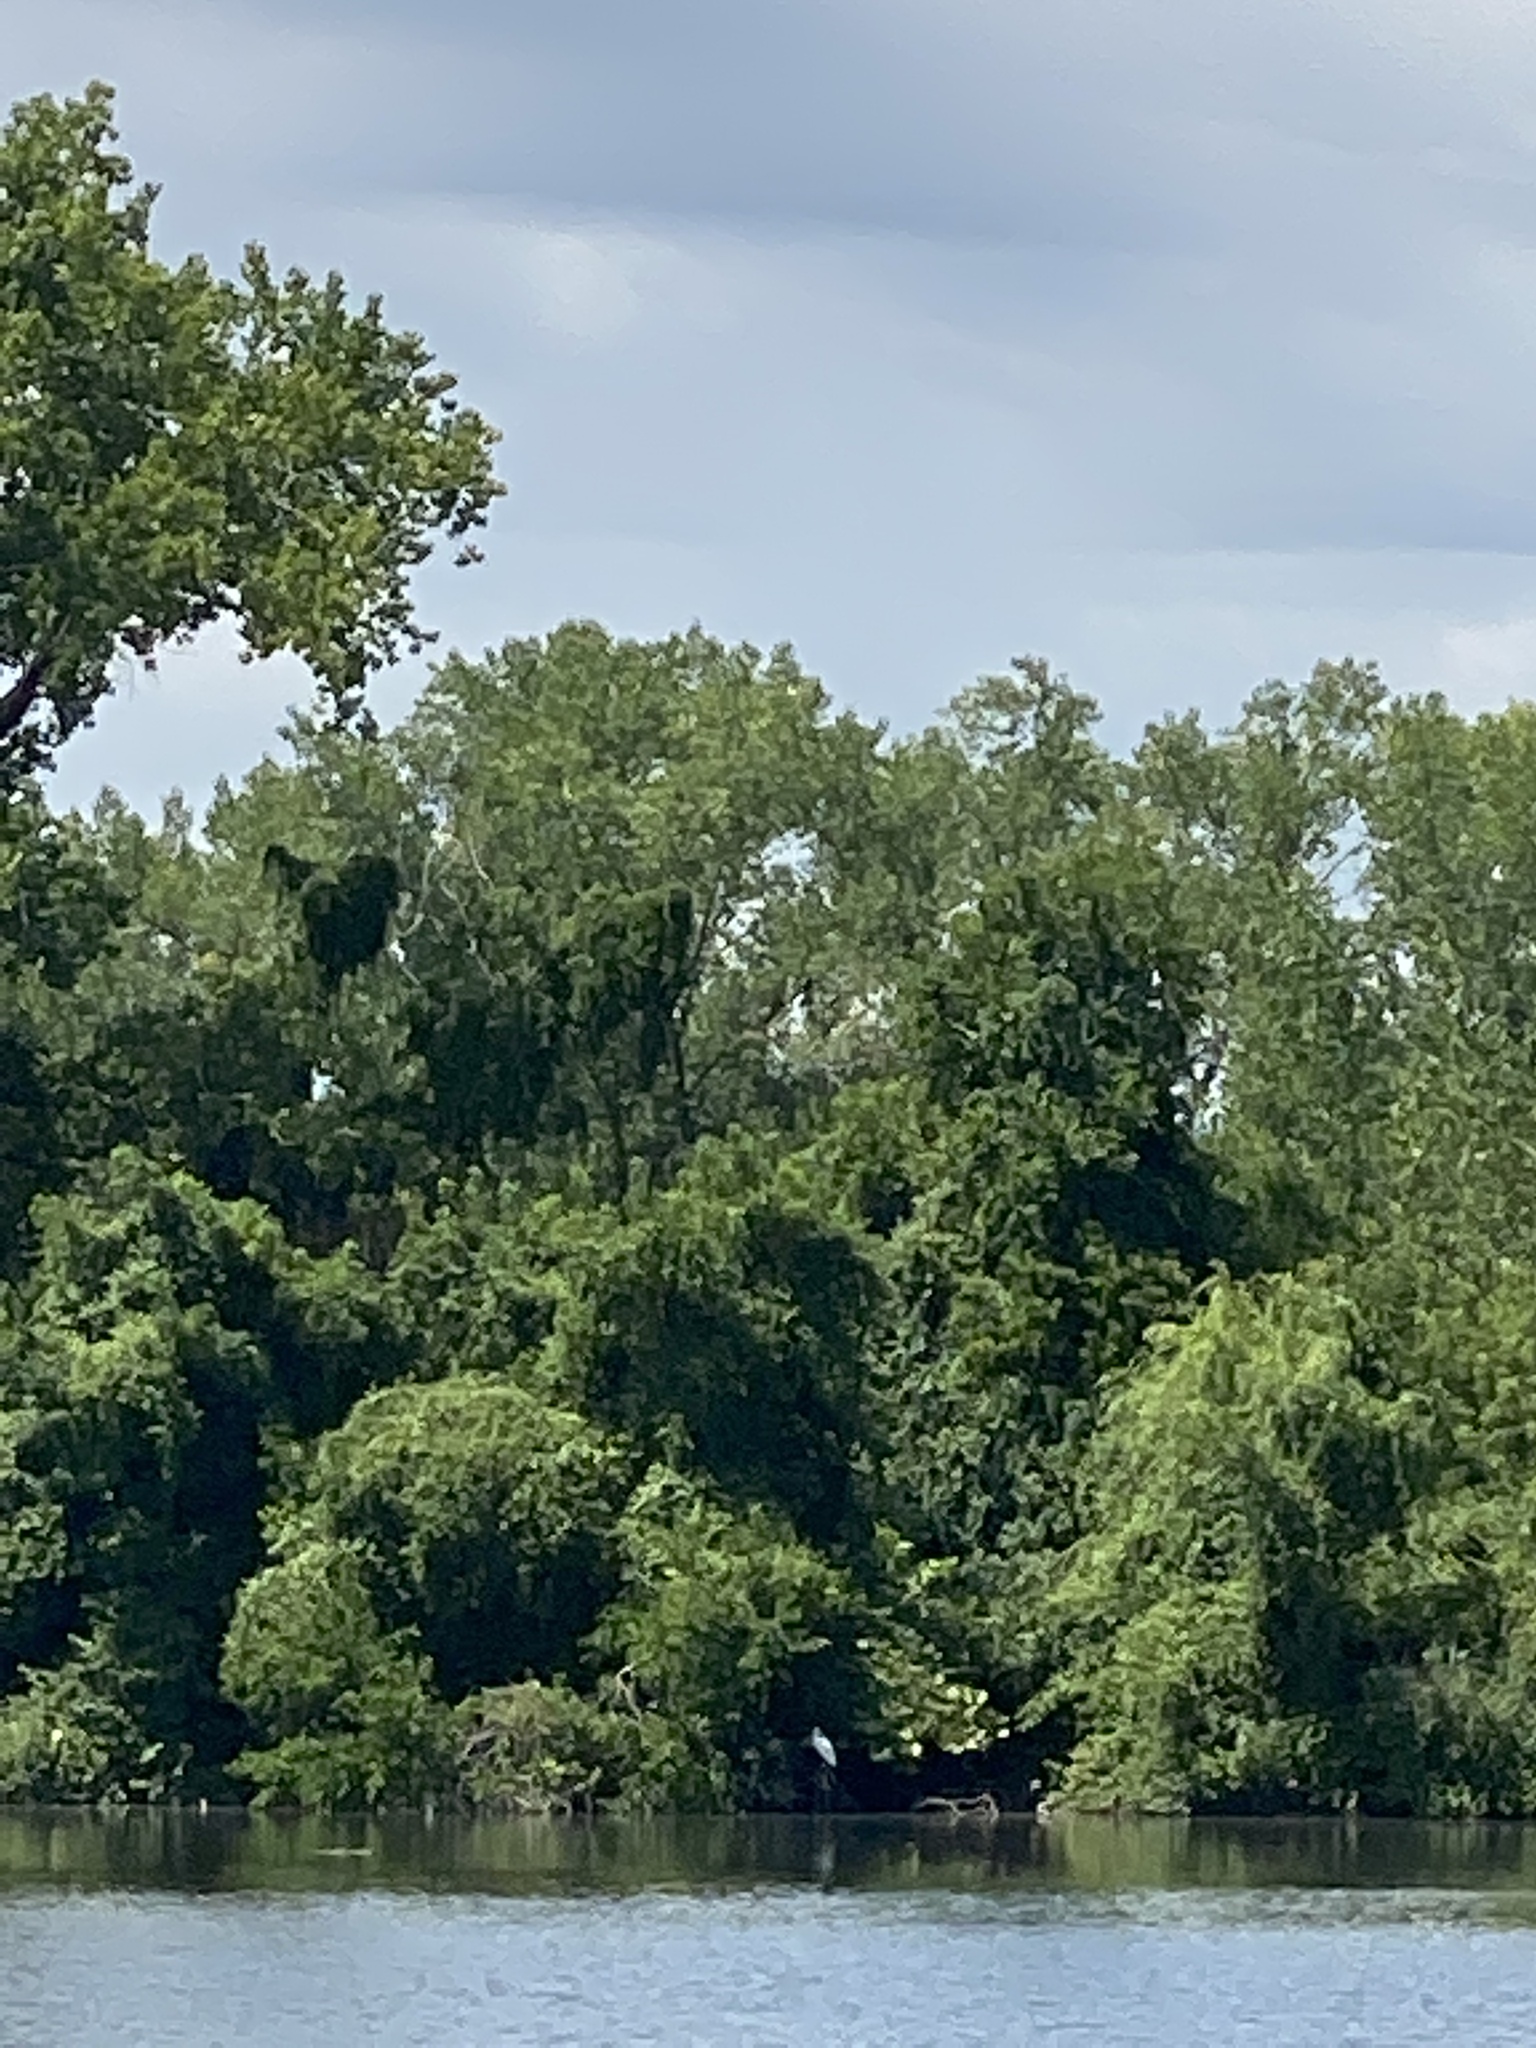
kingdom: Animalia
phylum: Chordata
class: Aves
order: Pelecaniformes
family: Ardeidae
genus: Ardea
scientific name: Ardea alba
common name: Great egret
